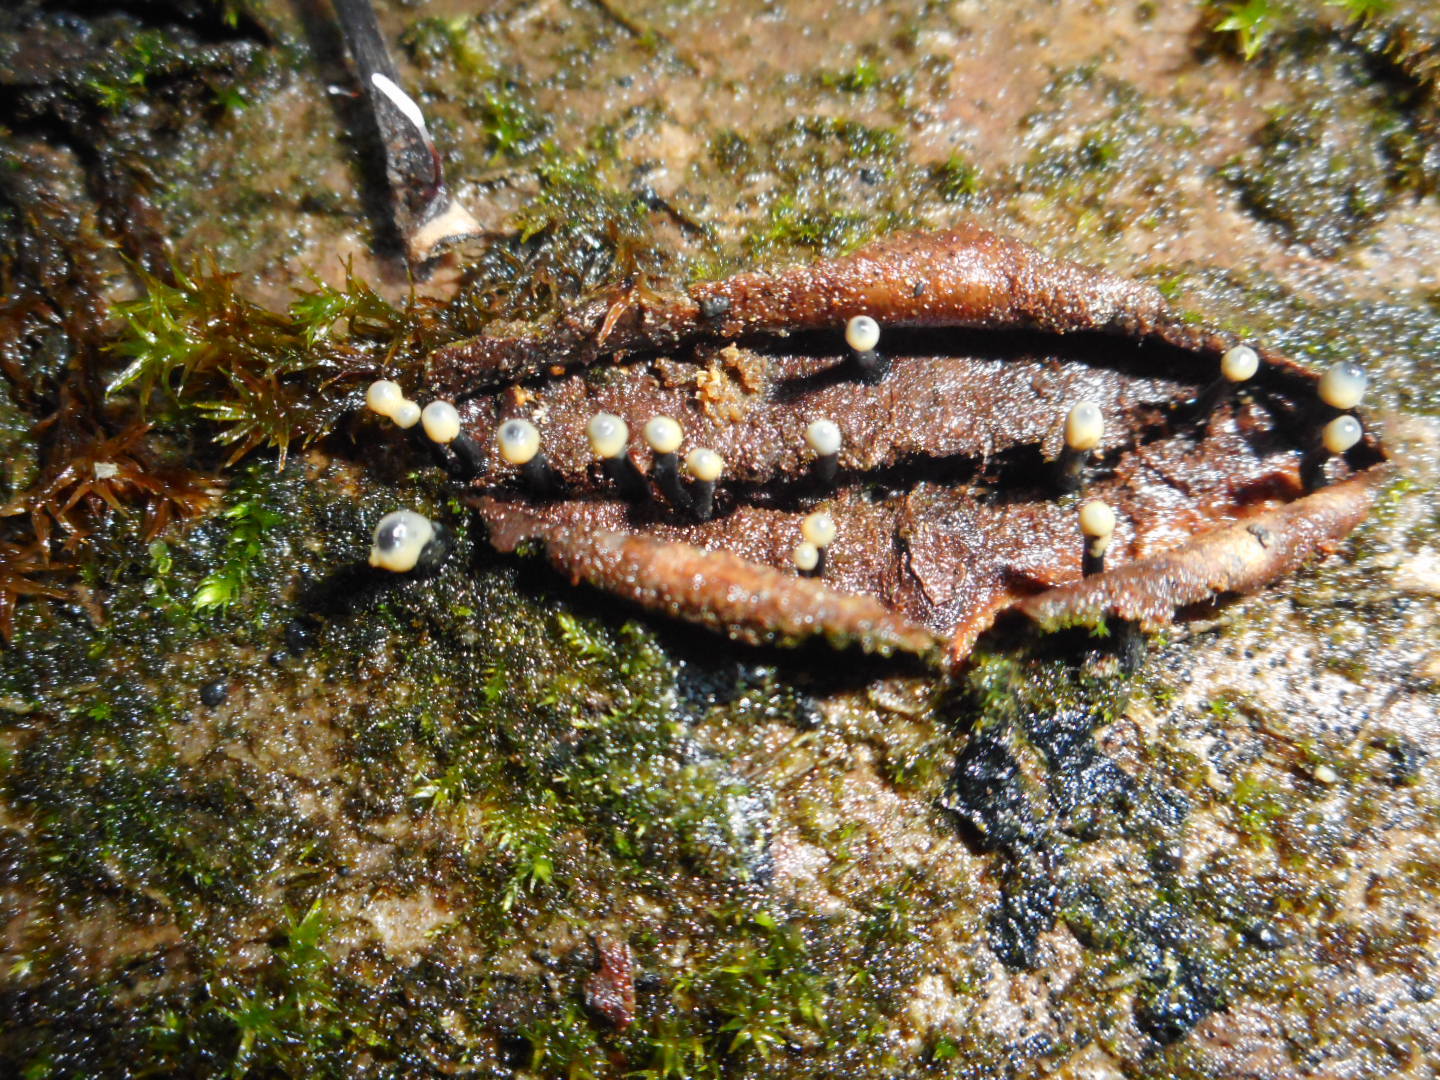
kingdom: Fungi
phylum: Ascomycota
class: Leotiomycetes
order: Helotiales
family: Bulgariaceae
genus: Holwaya
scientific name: Holwaya mucida
